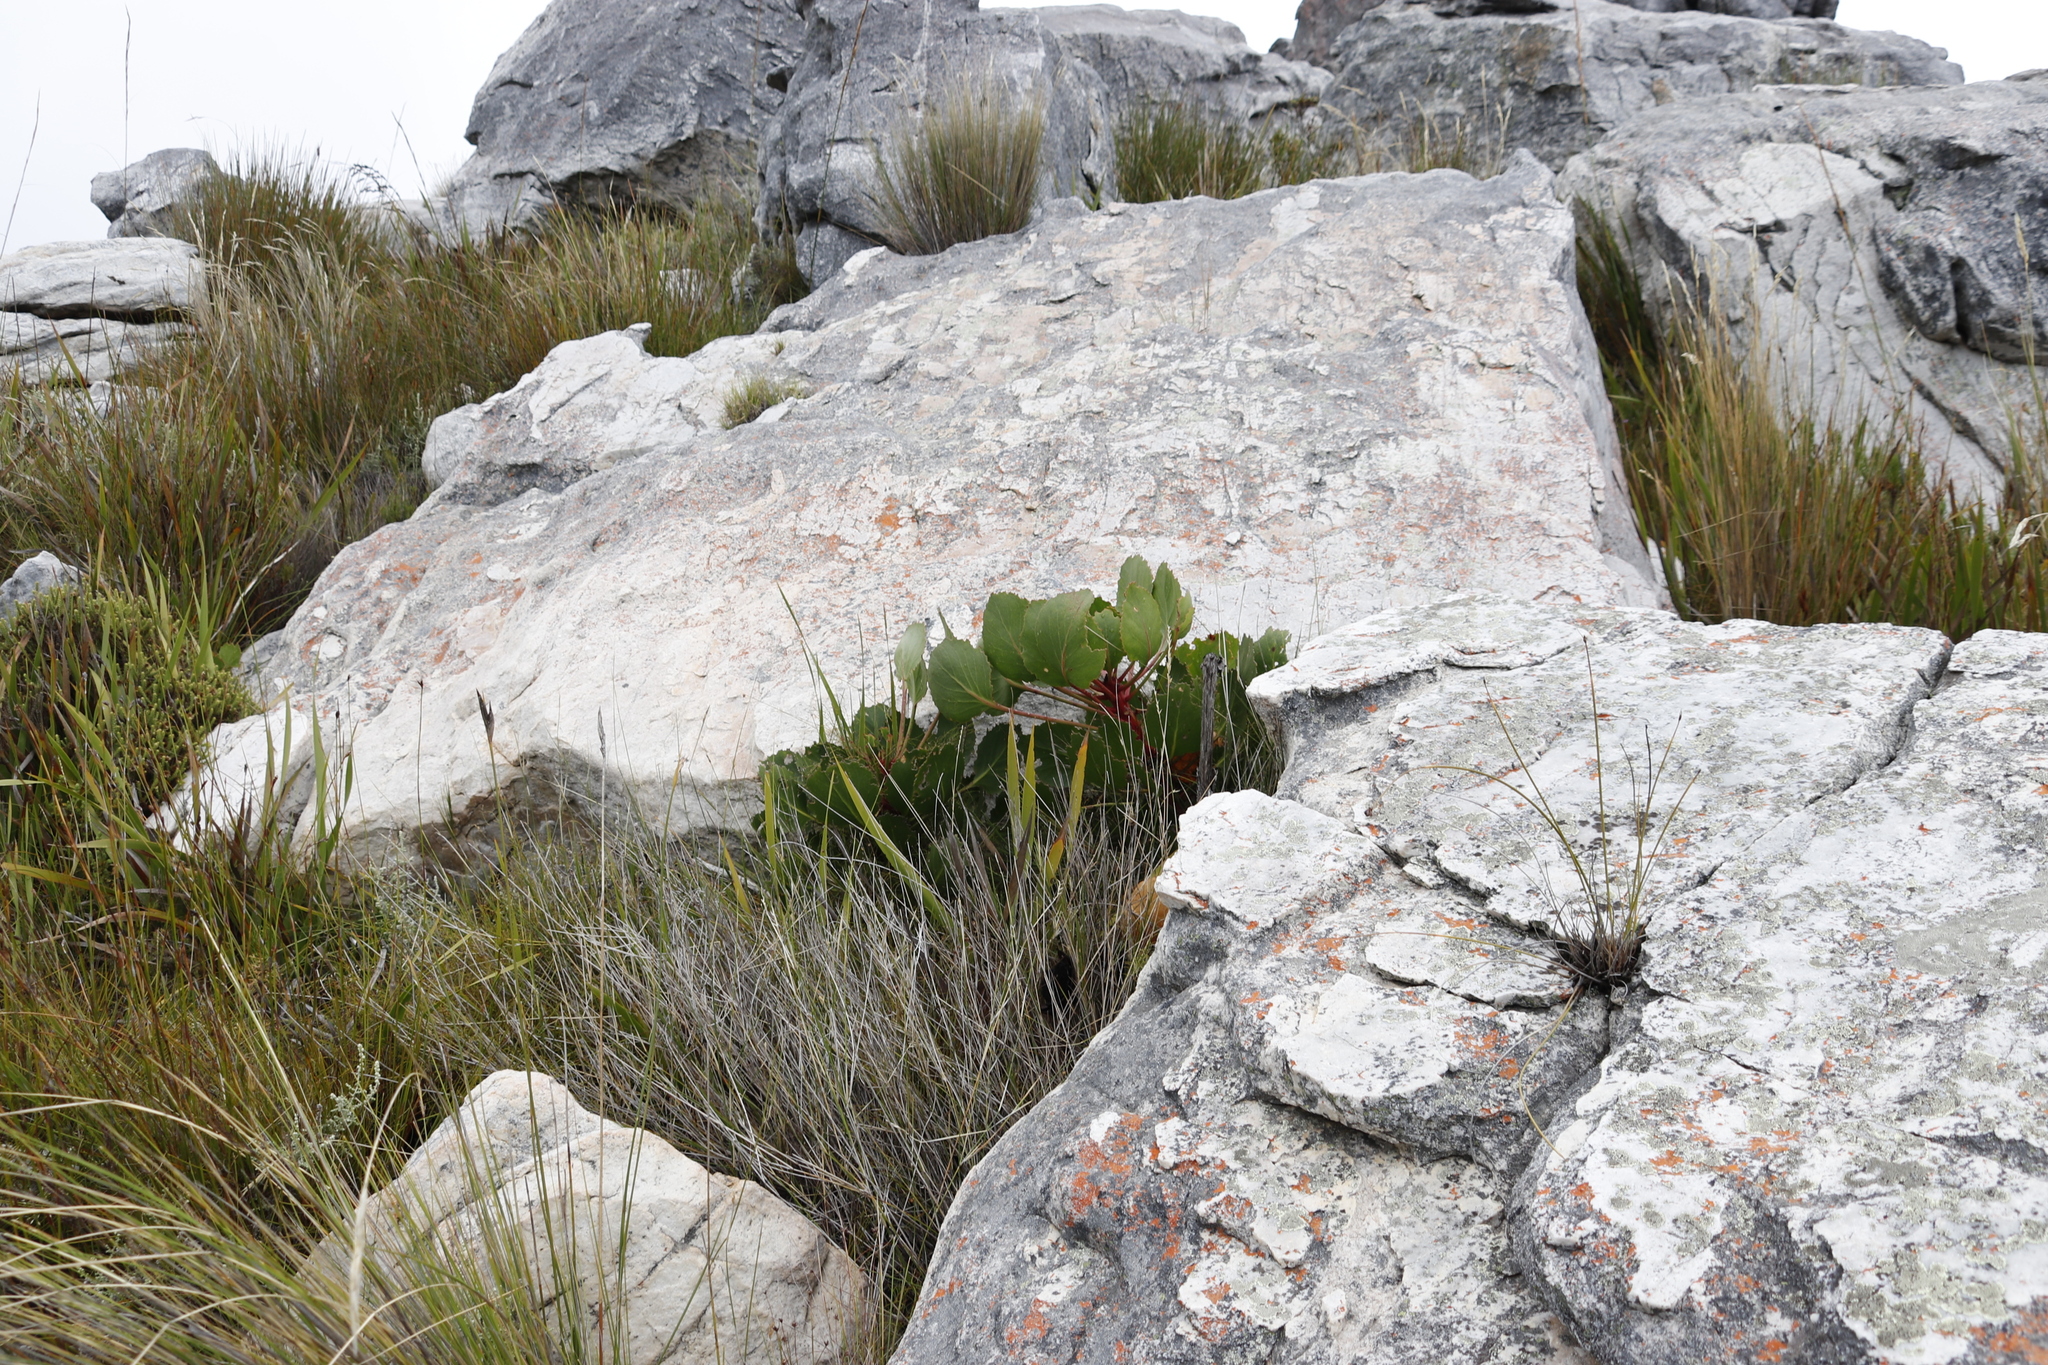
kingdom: Plantae
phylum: Tracheophyta
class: Magnoliopsida
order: Proteales
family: Proteaceae
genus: Protea
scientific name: Protea cynaroides
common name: King protea
